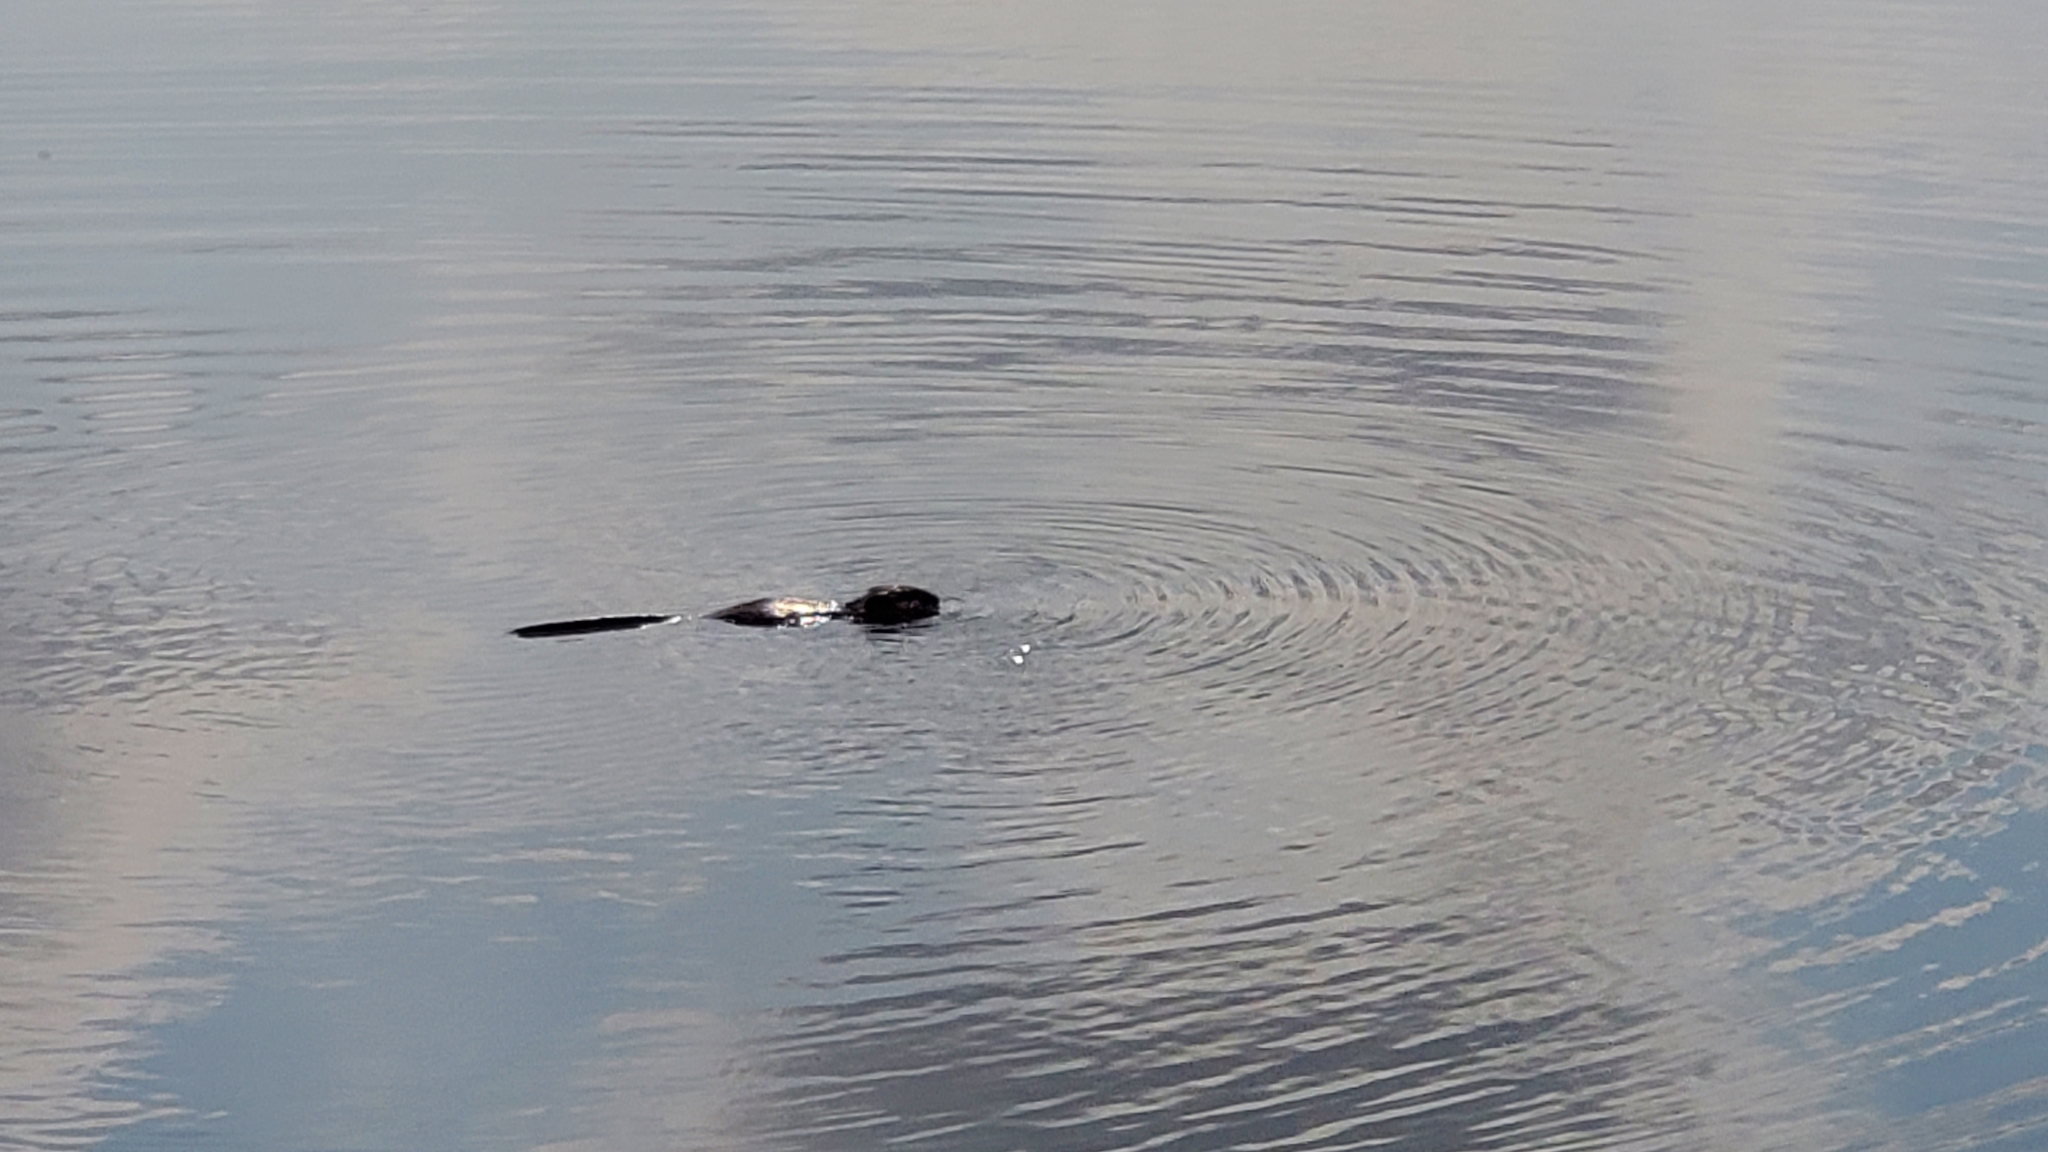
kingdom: Animalia
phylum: Chordata
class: Mammalia
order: Rodentia
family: Cricetidae
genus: Ondatra
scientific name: Ondatra zibethicus
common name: Muskrat
